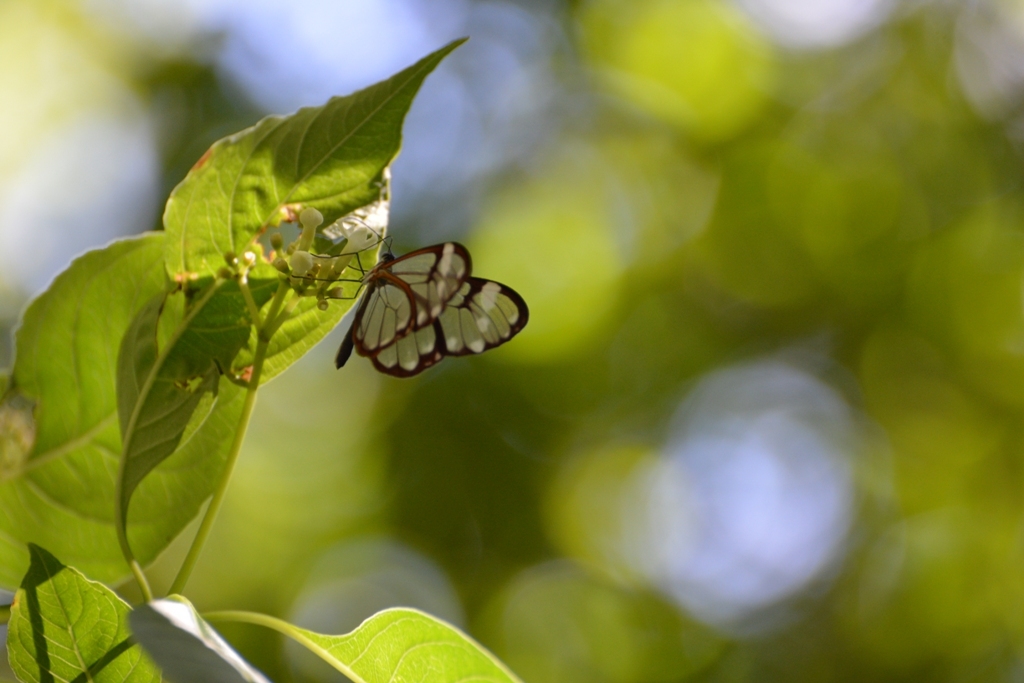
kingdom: Animalia
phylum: Arthropoda
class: Insecta
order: Lepidoptera
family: Nymphalidae
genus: Greta
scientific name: Greta annette
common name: White-spotted clearwing
